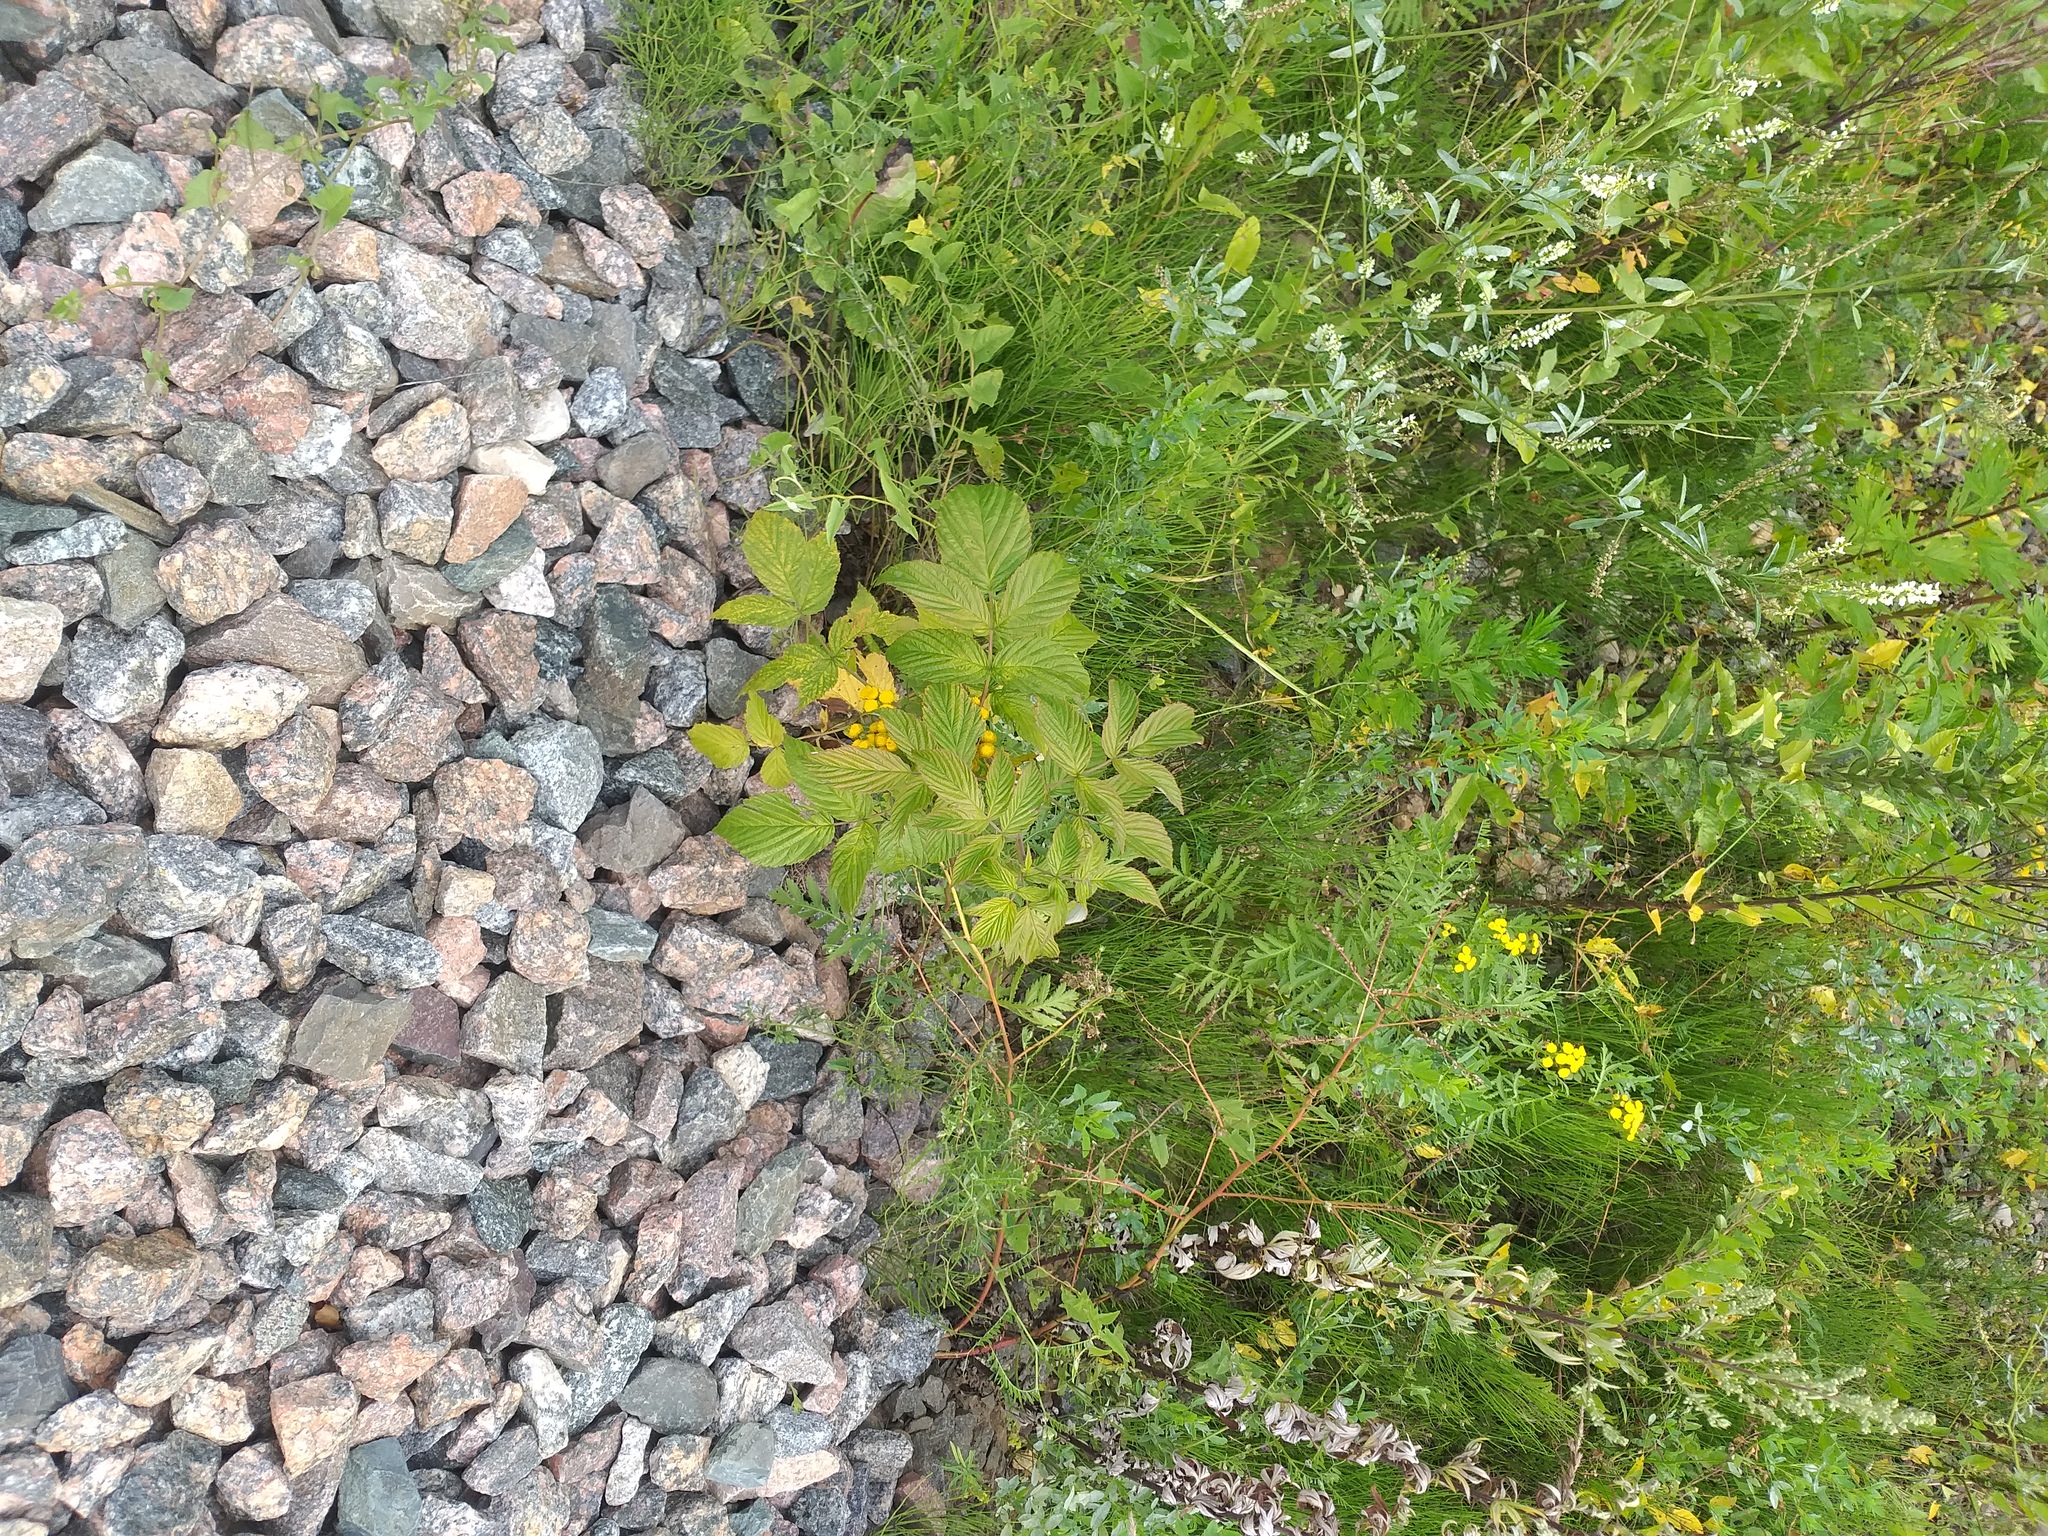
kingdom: Plantae
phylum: Tracheophyta
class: Magnoliopsida
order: Rosales
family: Rosaceae
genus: Rubus
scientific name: Rubus idaeus
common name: Raspberry
